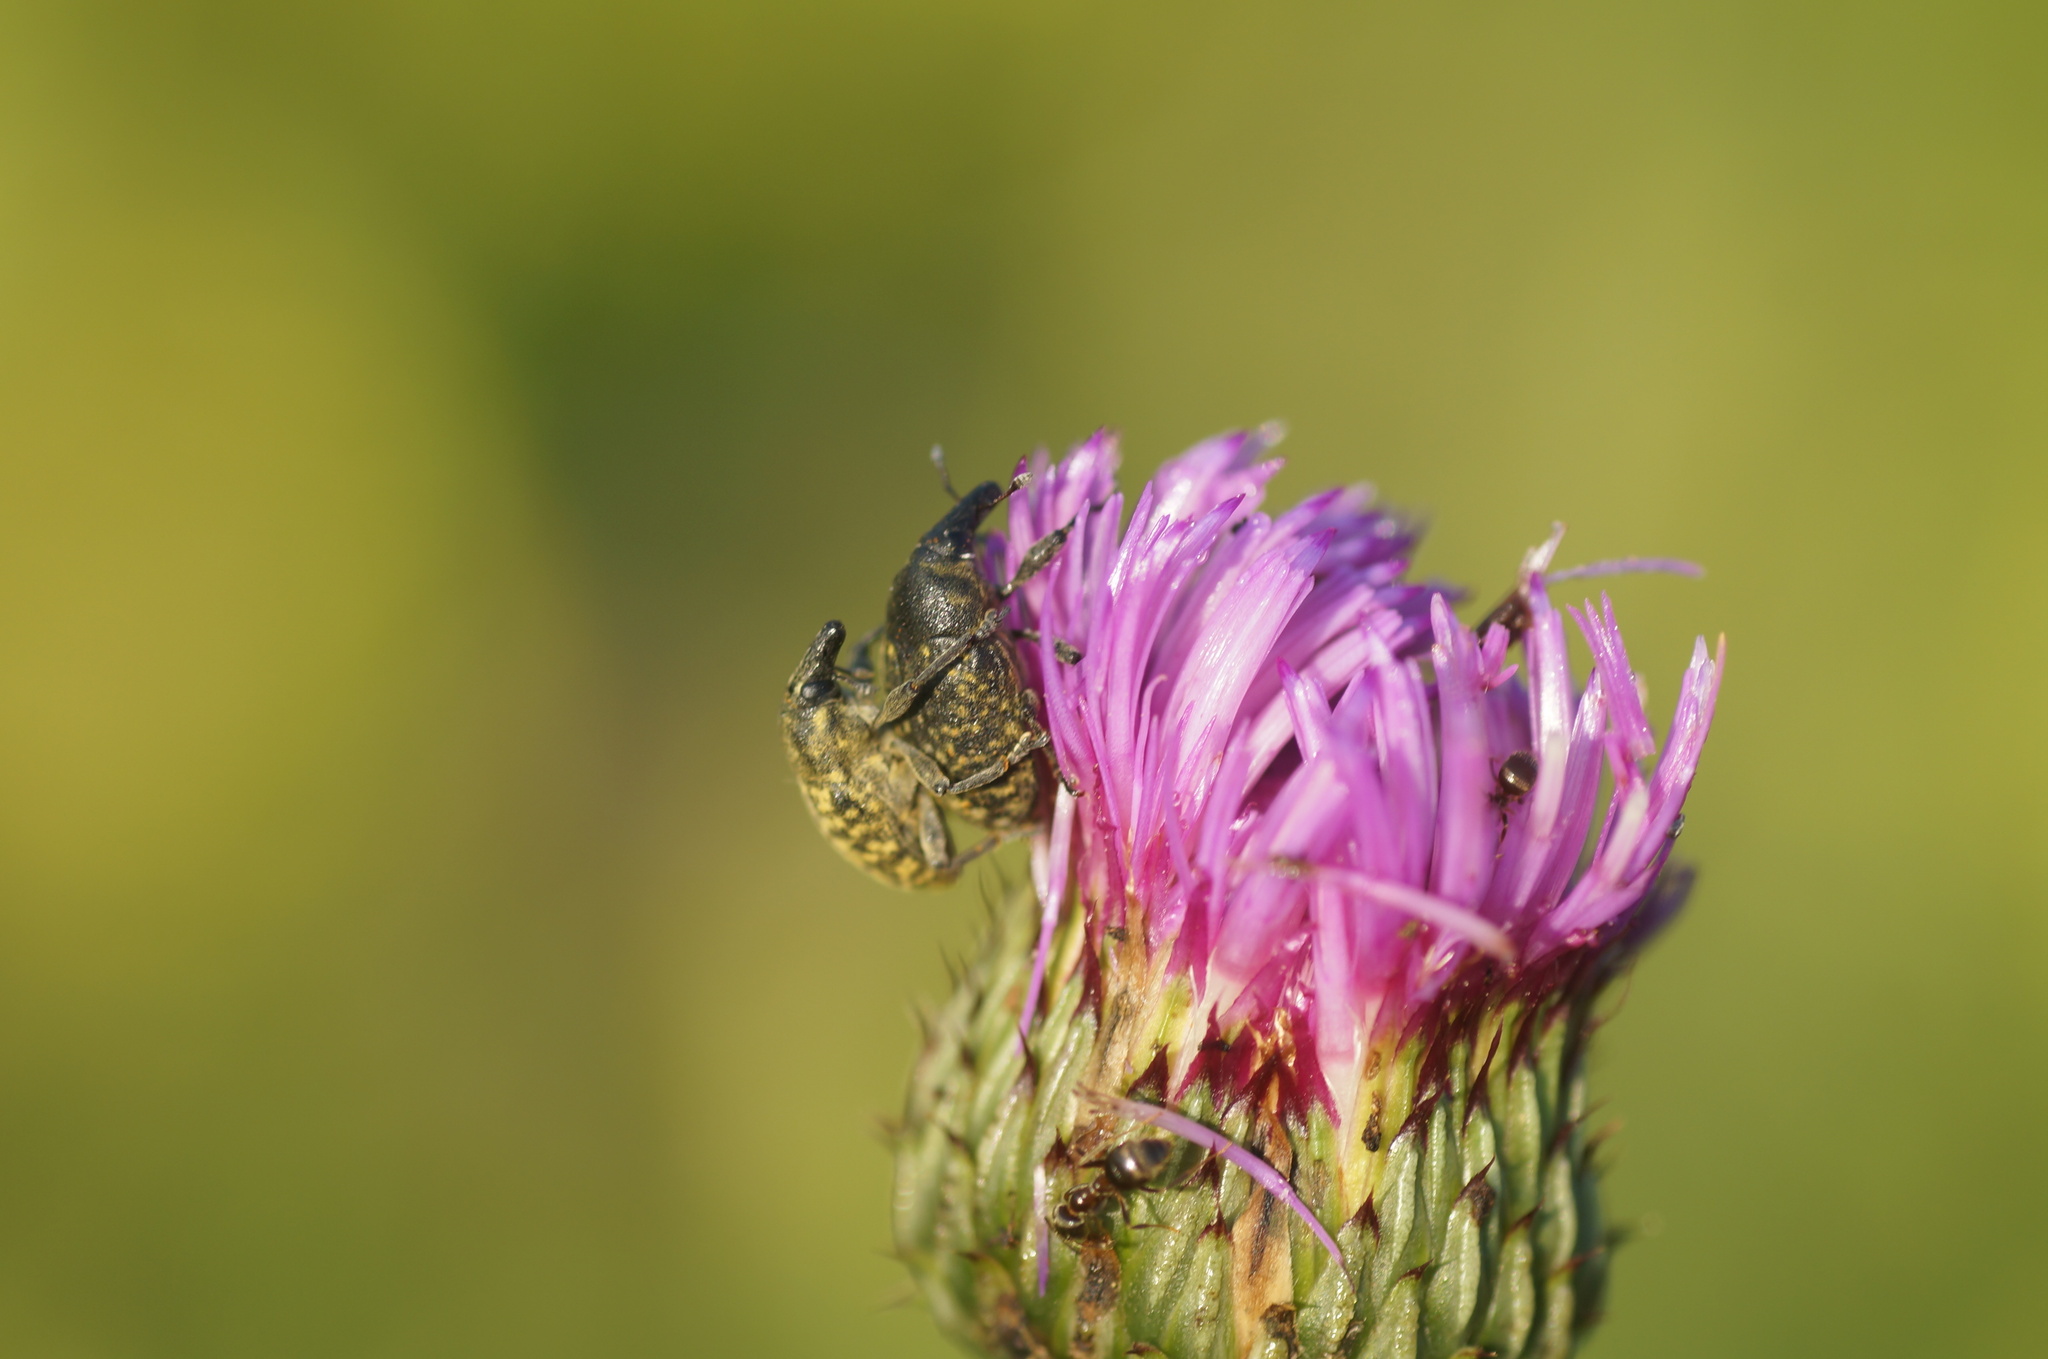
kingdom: Animalia
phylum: Arthropoda
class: Insecta
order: Coleoptera
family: Curculionidae
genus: Larinus
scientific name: Larinus turbinatus
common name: Weevil
